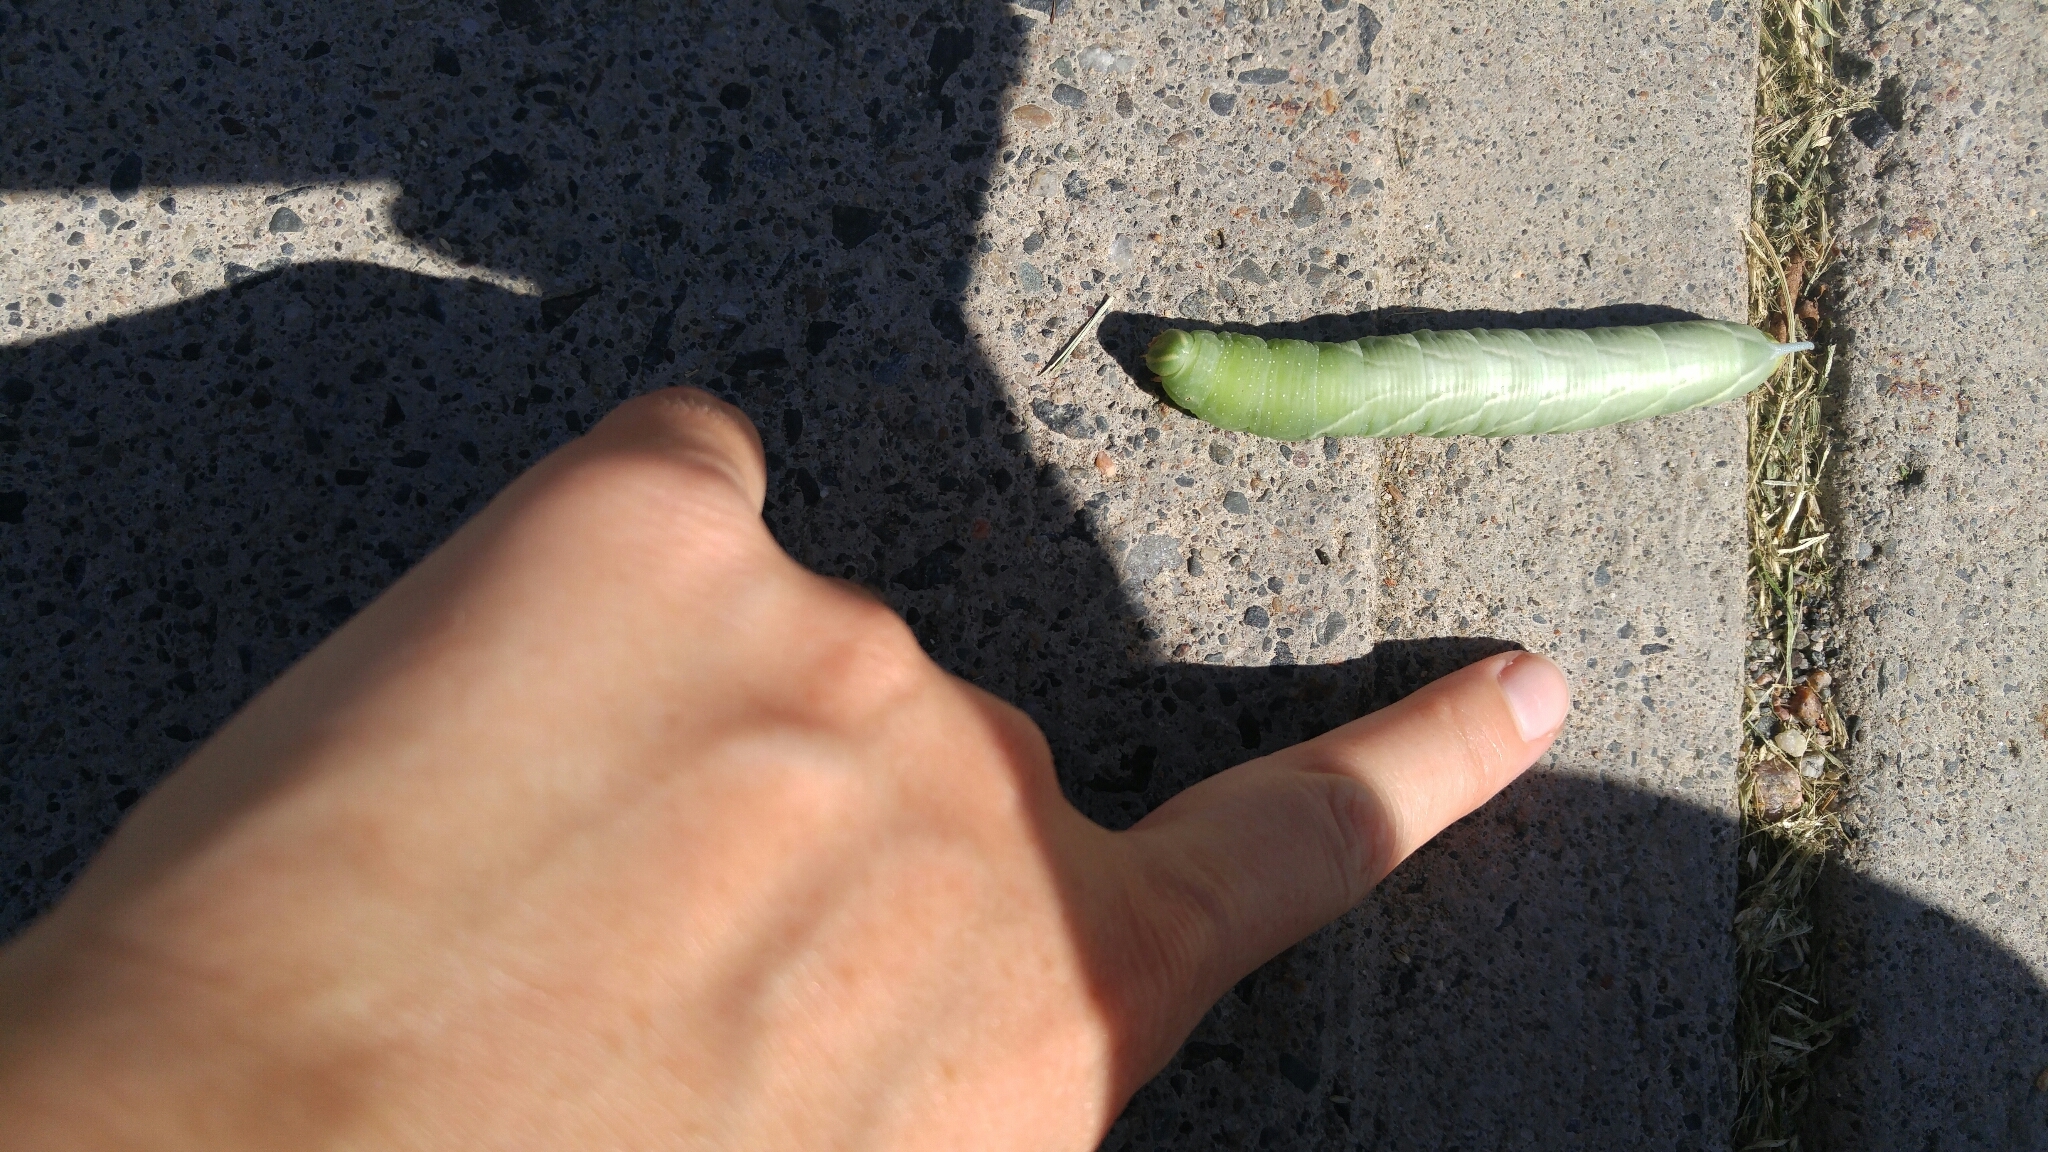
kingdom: Animalia
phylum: Arthropoda
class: Insecta
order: Lepidoptera
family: Sphingidae
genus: Sphinx
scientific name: Sphinx chersis
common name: Great ash sphinx
